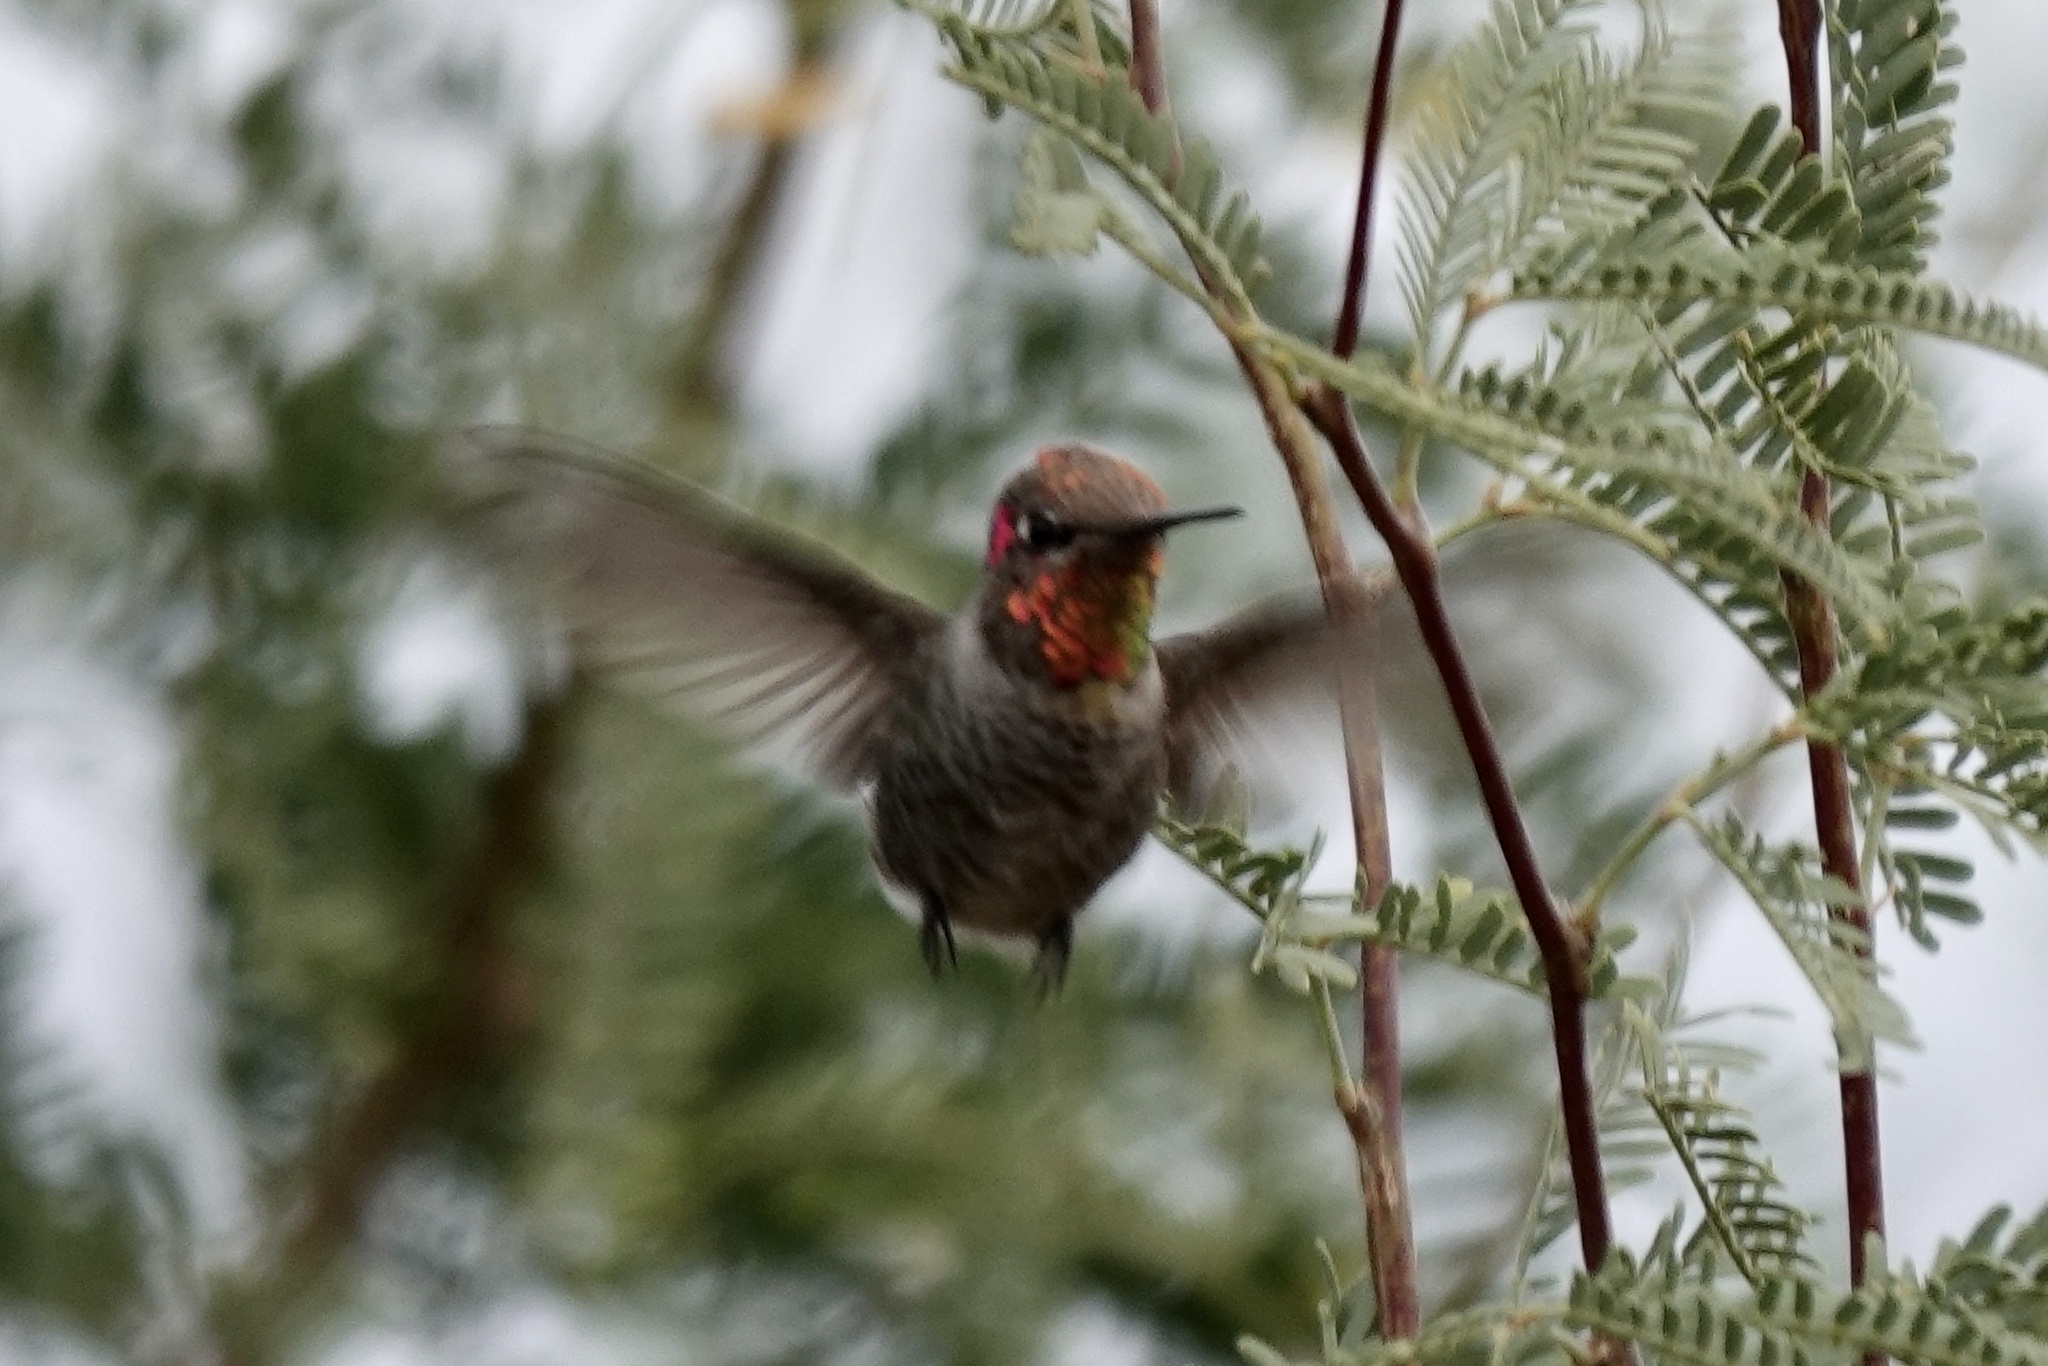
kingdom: Animalia
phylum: Chordata
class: Aves
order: Apodiformes
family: Trochilidae
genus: Calypte
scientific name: Calypte anna
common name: Anna's hummingbird
